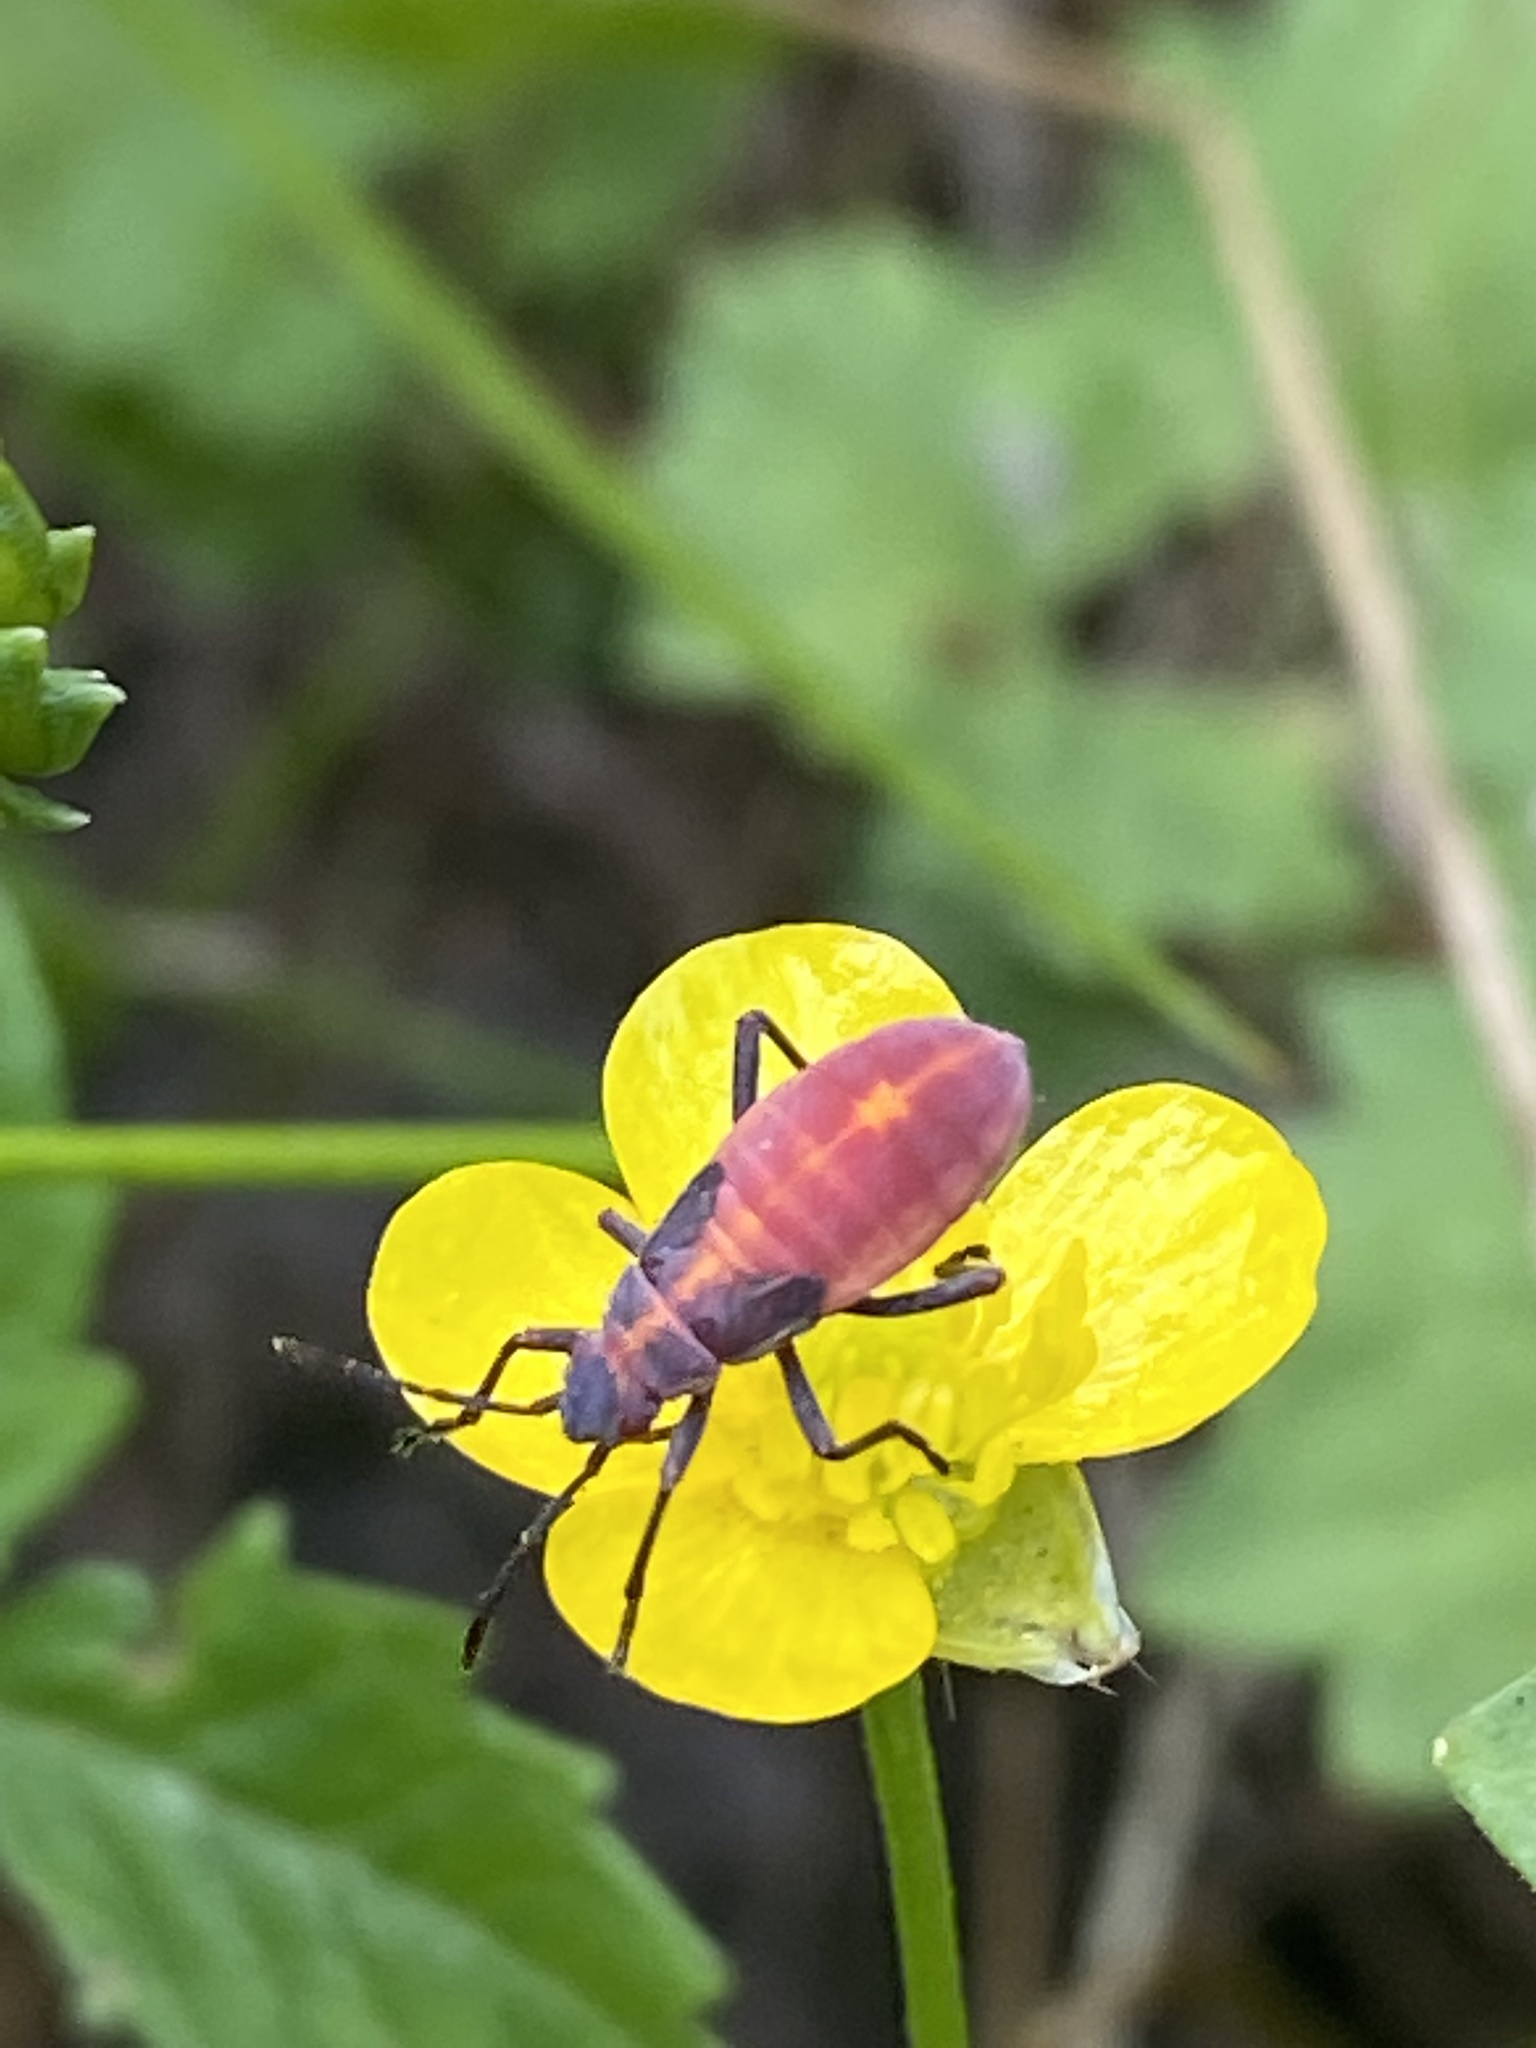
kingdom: Animalia
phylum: Arthropoda
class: Insecta
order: Hemiptera
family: Rhopalidae
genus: Boisea
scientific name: Boisea trivittata
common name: Boxelder bug
